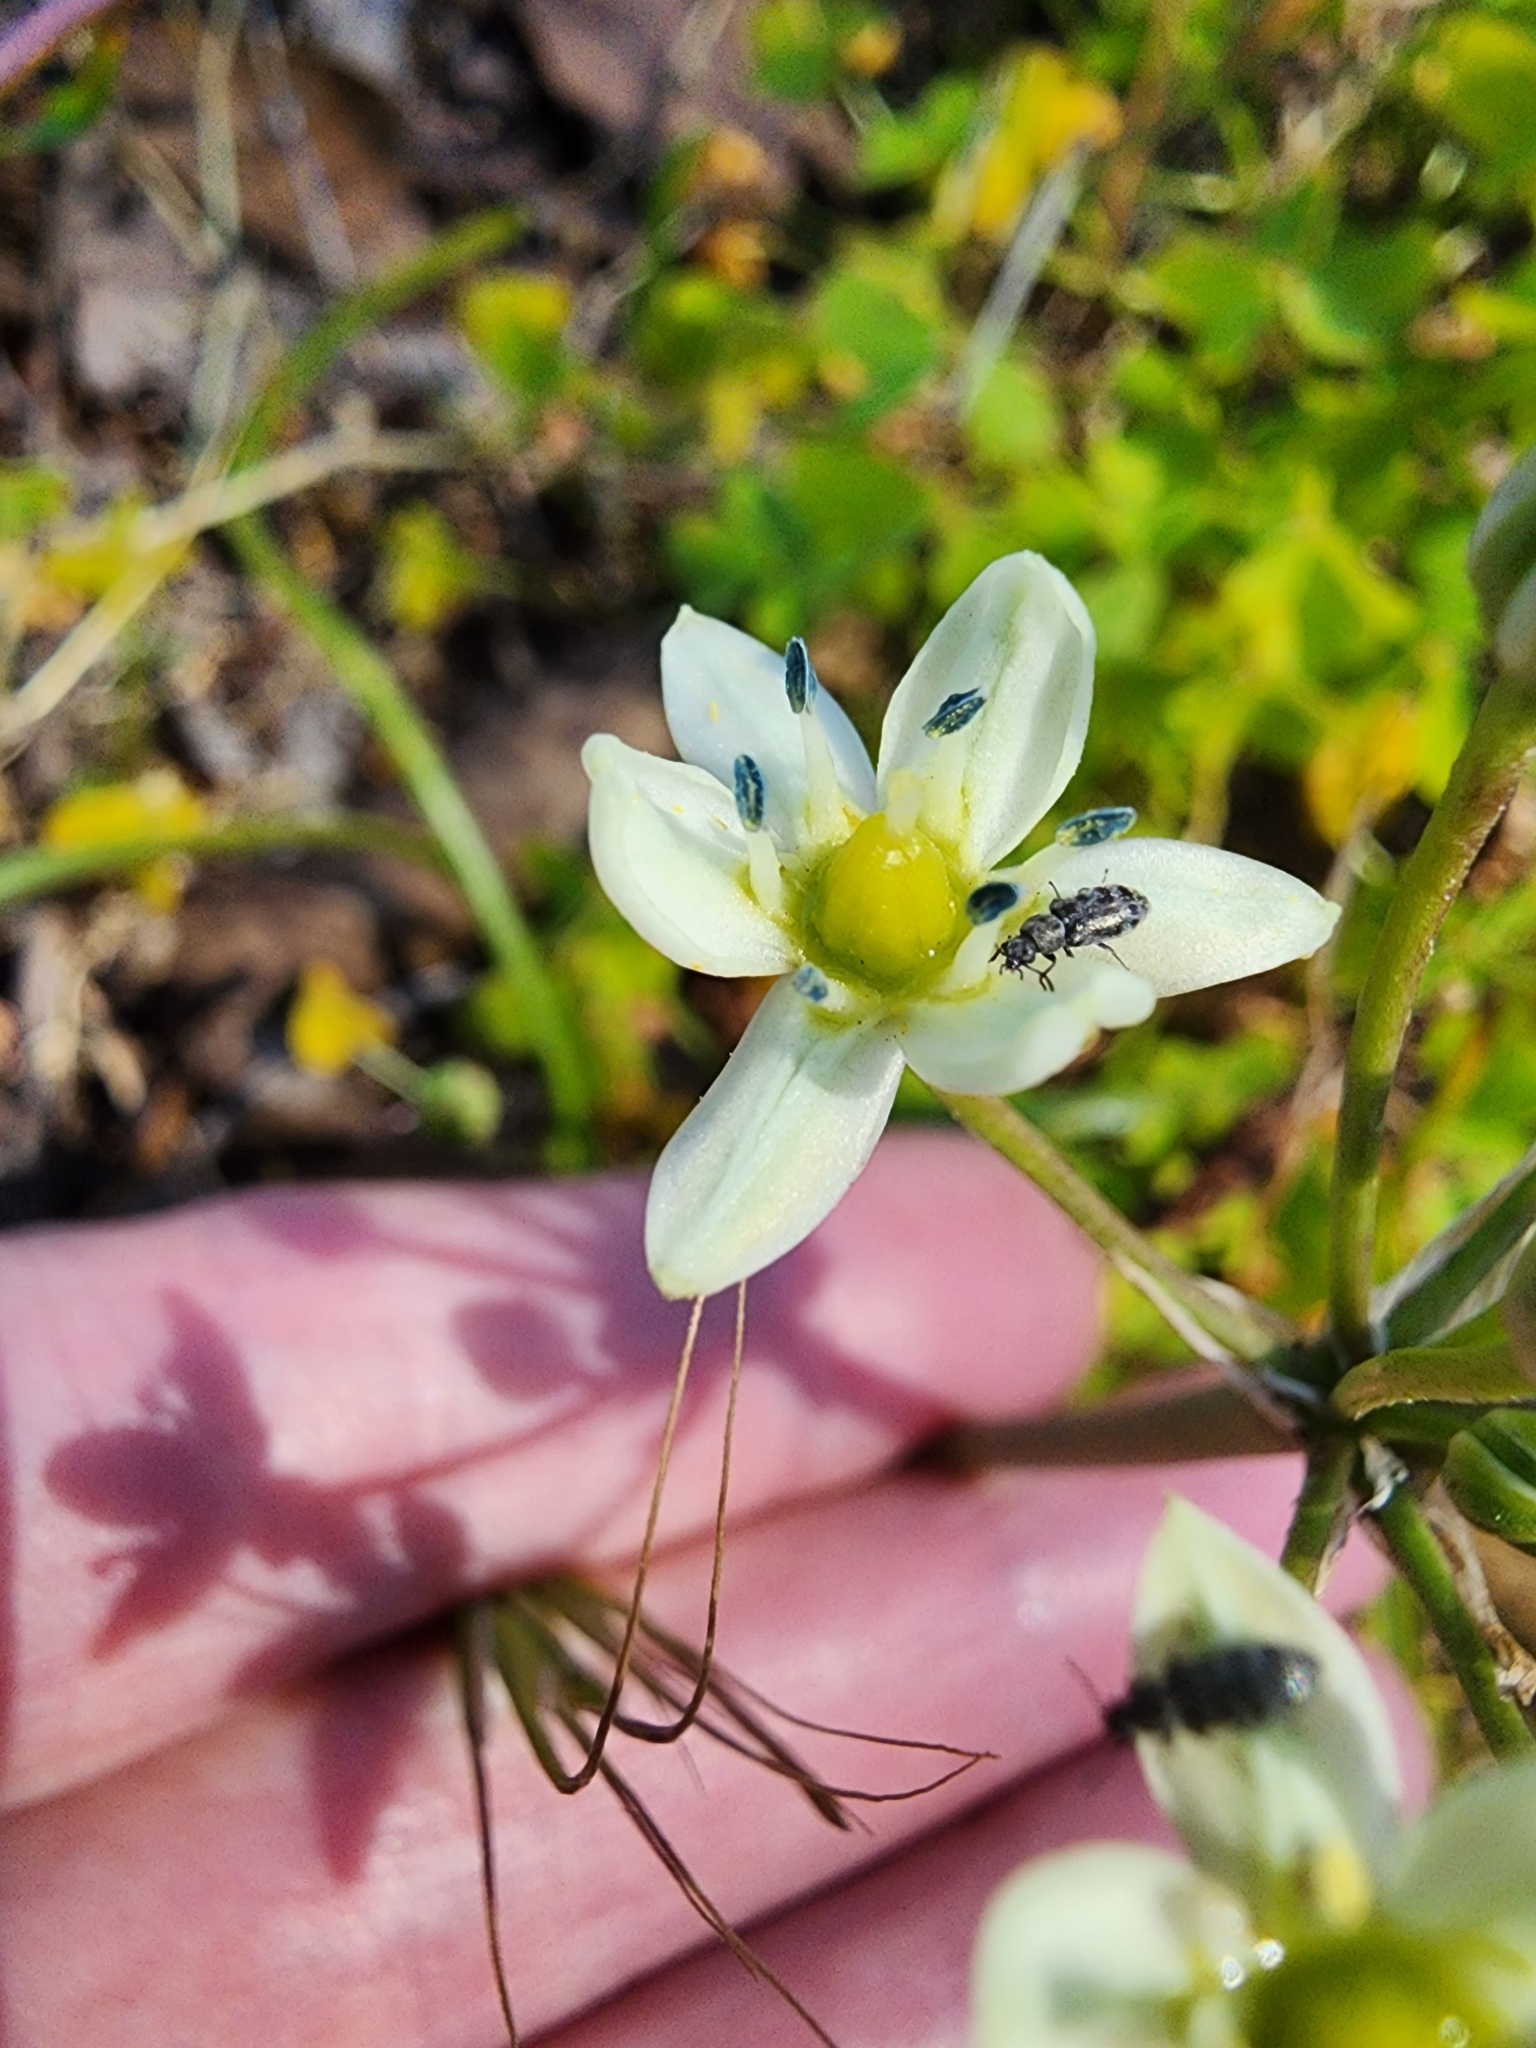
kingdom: Plantae
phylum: Tracheophyta
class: Liliopsida
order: Asparagales
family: Asparagaceae
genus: Muilla
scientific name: Muilla maritima
